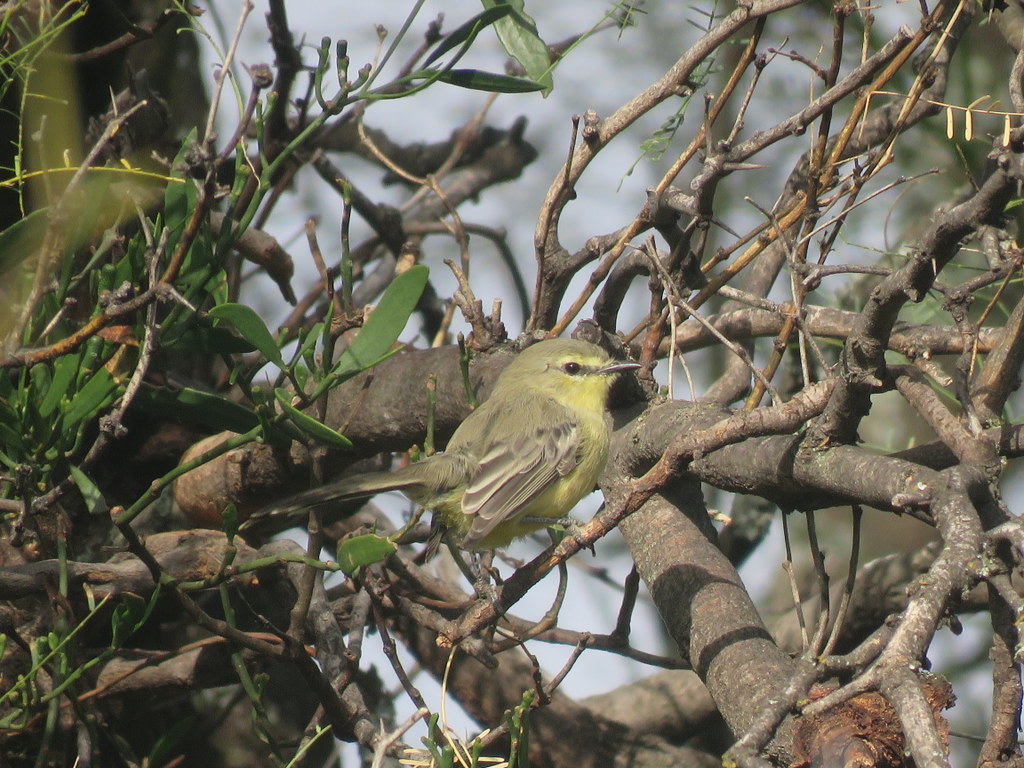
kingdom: Animalia
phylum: Chordata
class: Aves
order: Passeriformes
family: Tyrannidae
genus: Stigmatura
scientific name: Stigmatura budytoides
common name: Greater wagtail-tyrant
